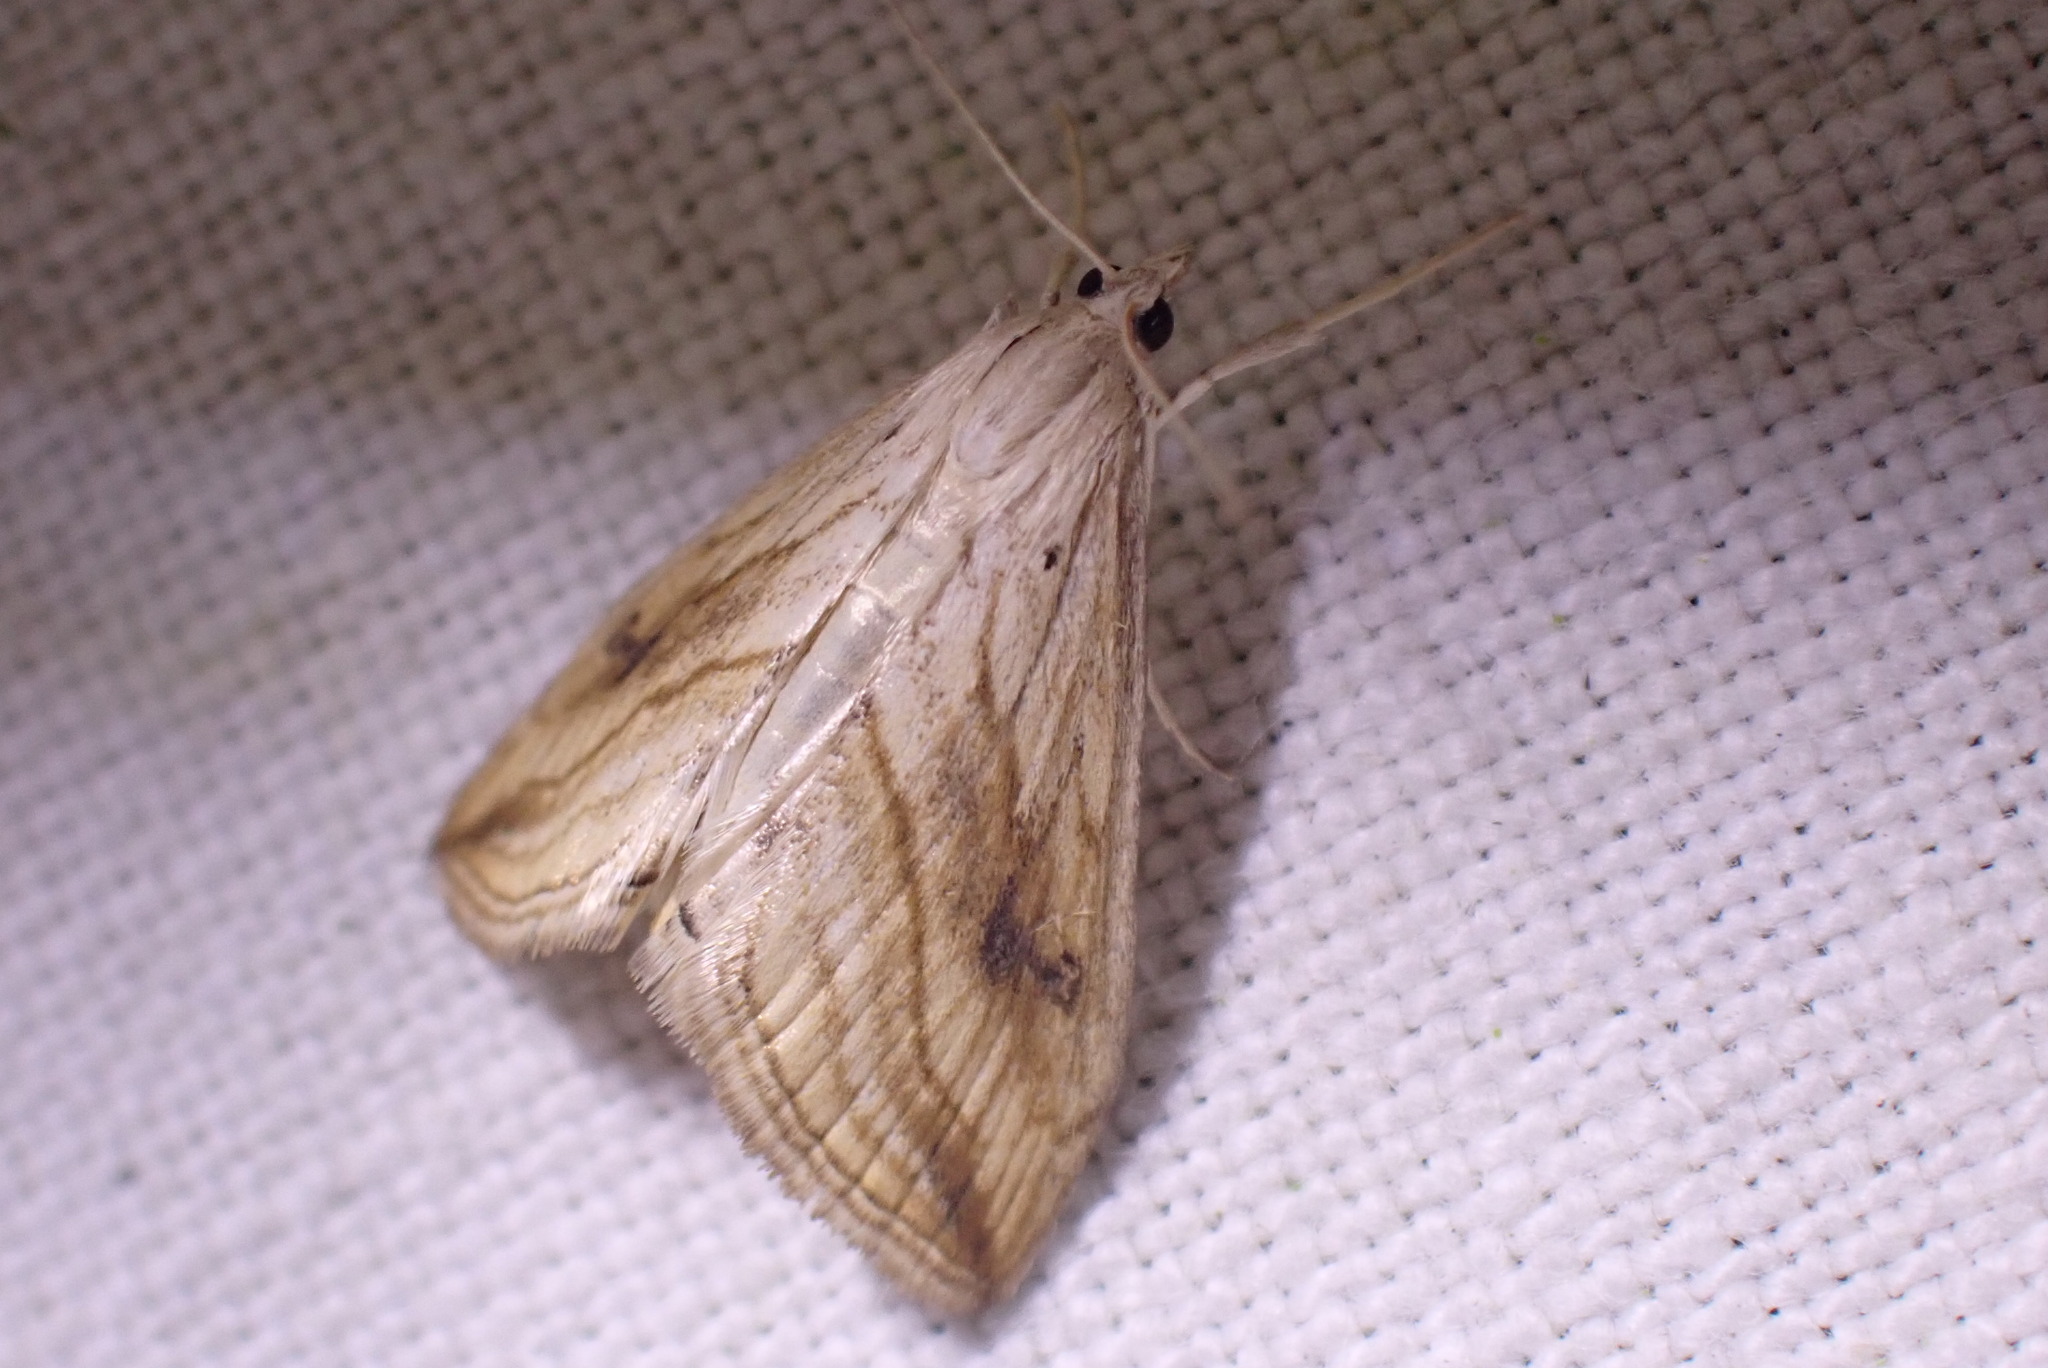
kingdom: Animalia
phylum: Arthropoda
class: Insecta
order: Lepidoptera
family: Crambidae
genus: Evergestis
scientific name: Evergestis forficalis
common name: Garden pebble
